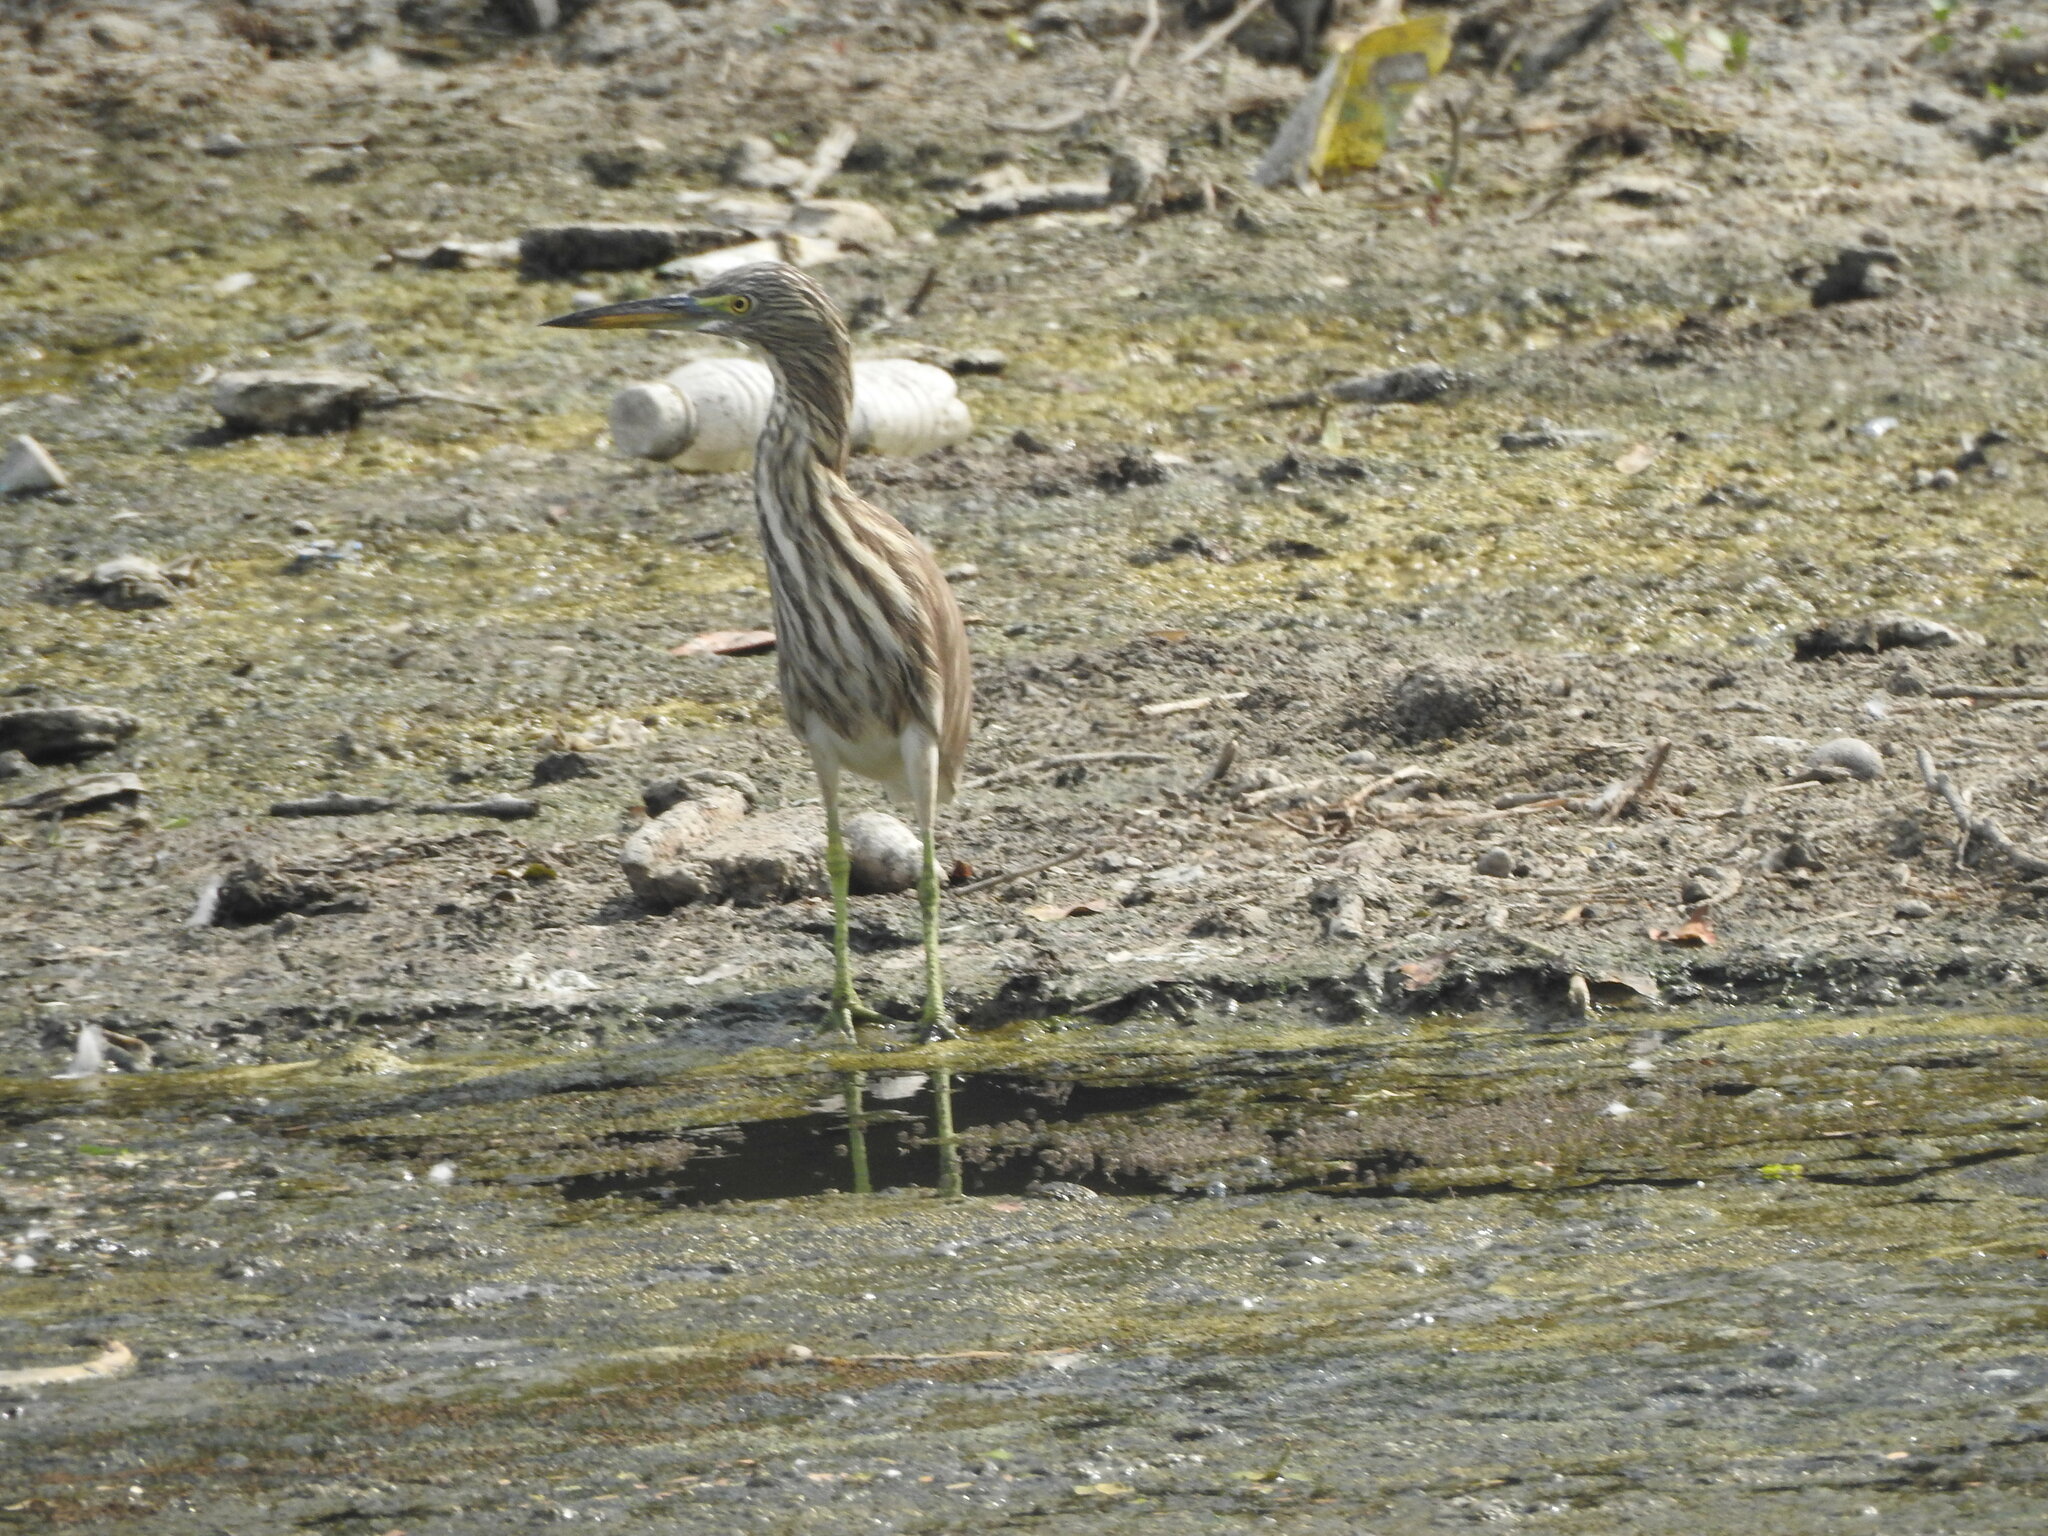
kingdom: Animalia
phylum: Chordata
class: Aves
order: Pelecaniformes
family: Ardeidae
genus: Ardeola
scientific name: Ardeola grayii
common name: Indian pond heron
